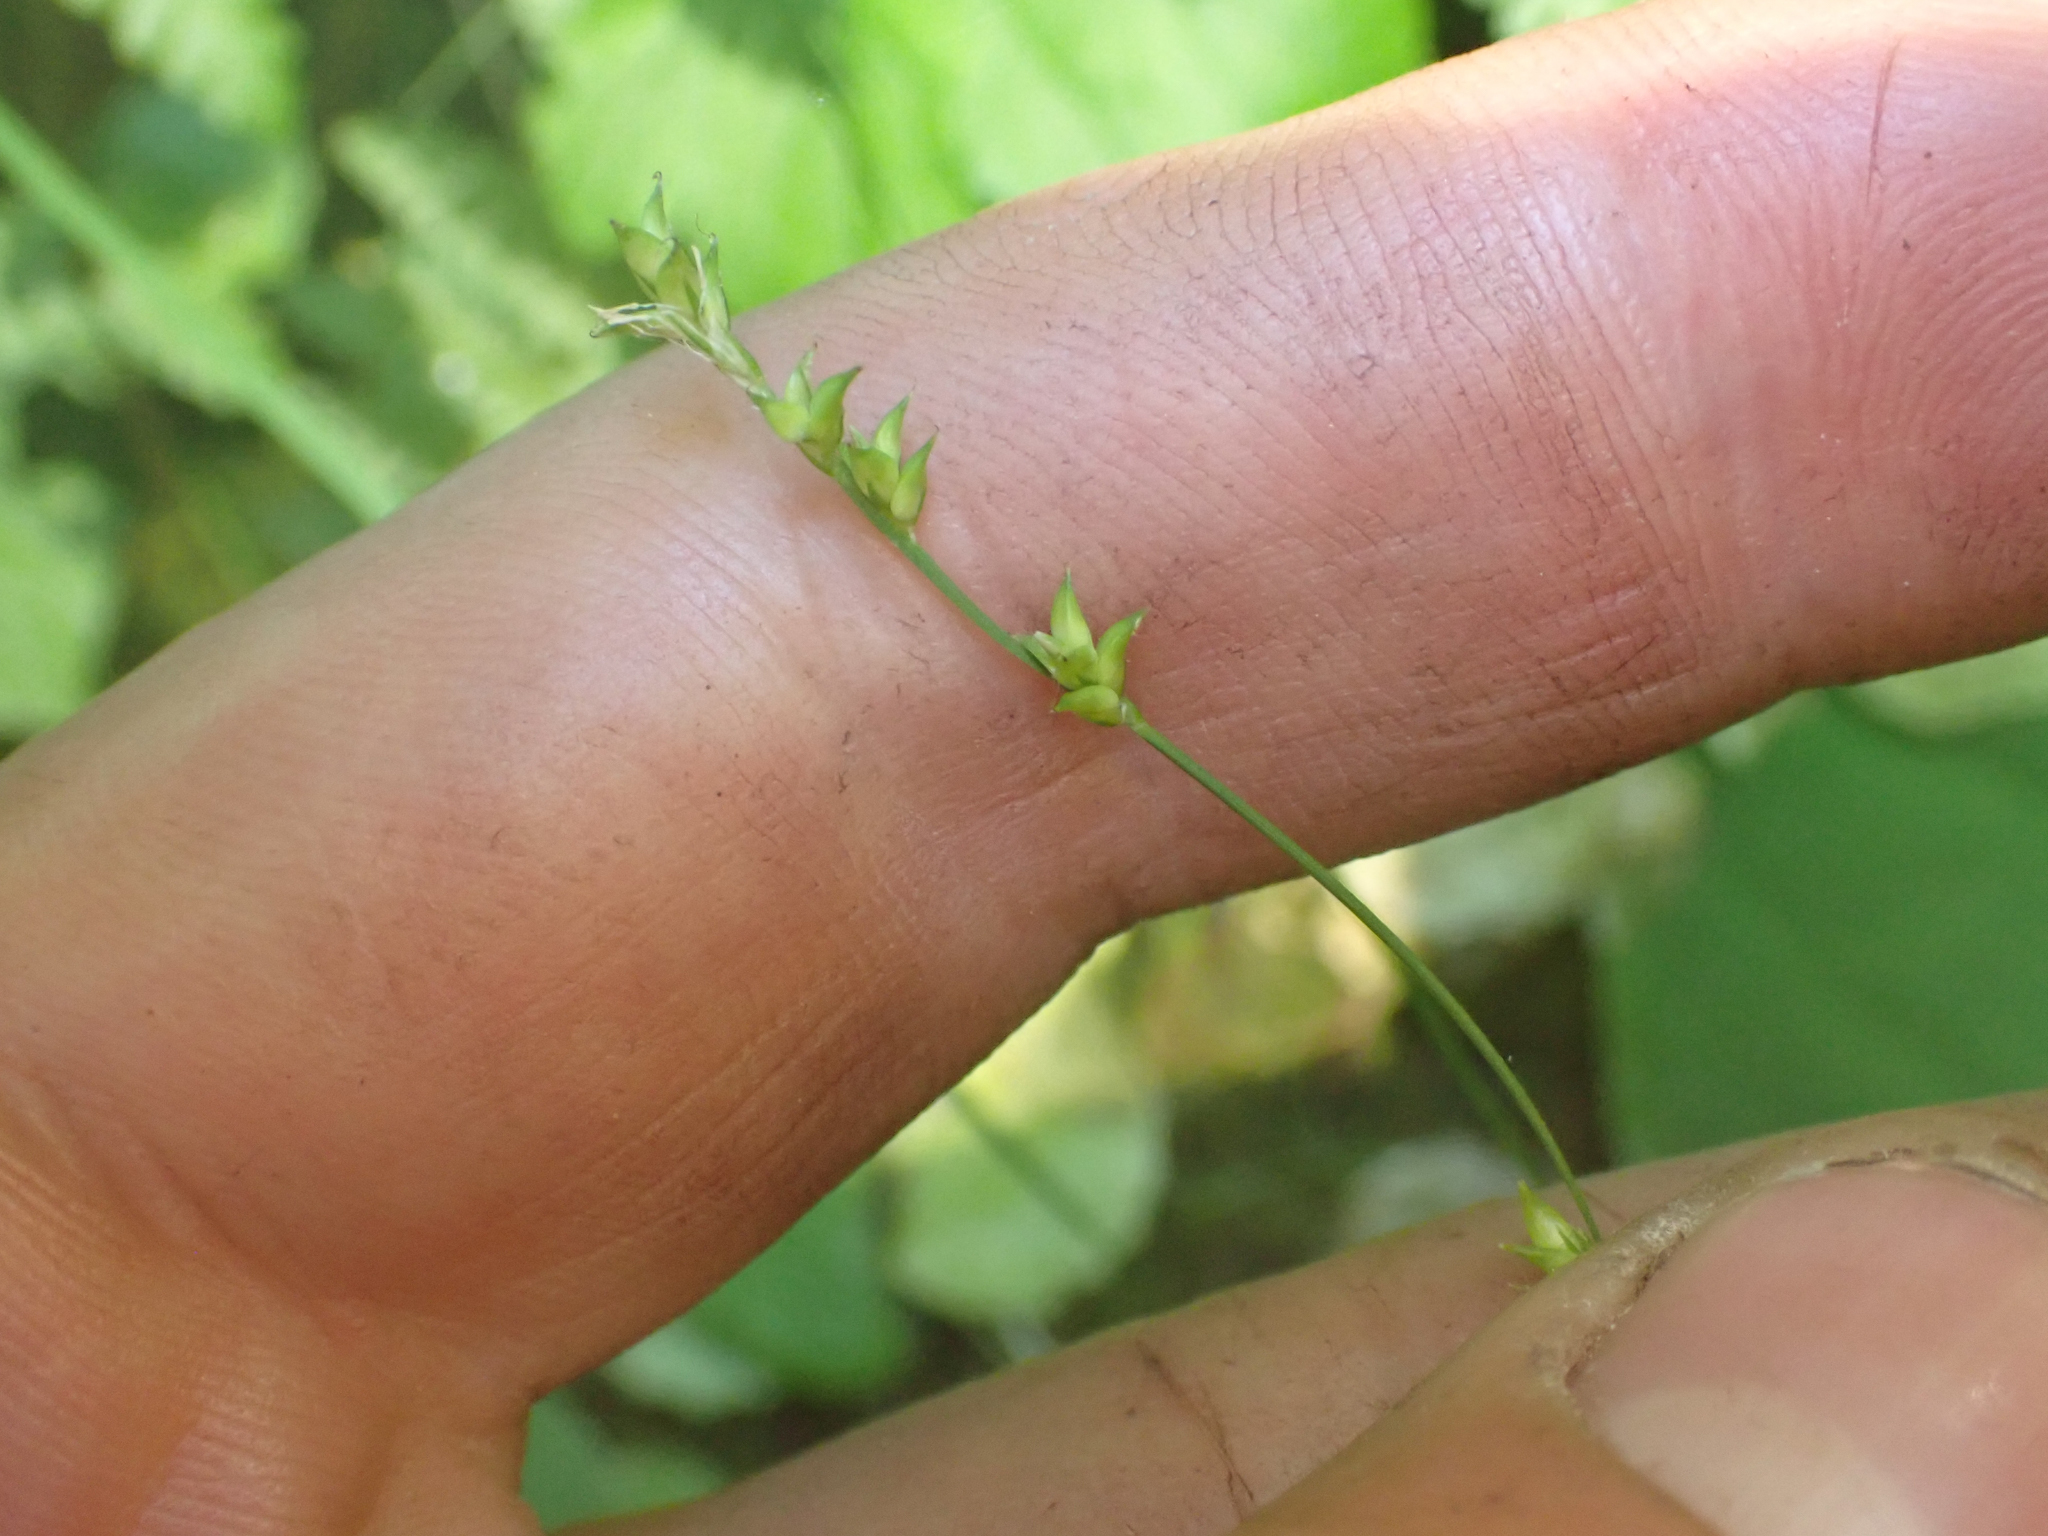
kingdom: Plantae
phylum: Tracheophyta
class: Liliopsida
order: Poales
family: Cyperaceae
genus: Carex
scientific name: Carex disperma
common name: Short-leaved sedge
